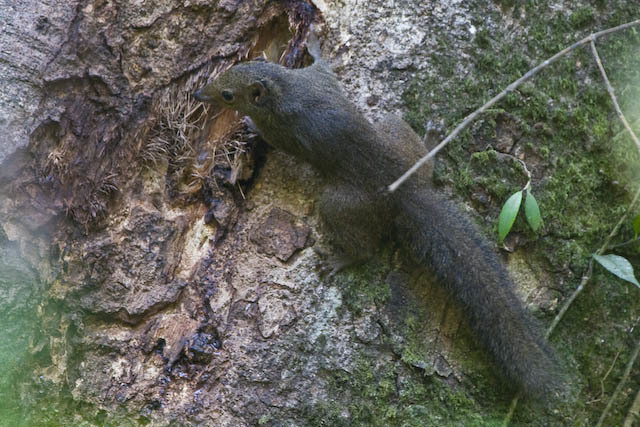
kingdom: Animalia
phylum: Chordata
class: Mammalia
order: Scandentia
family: Tupaiidae
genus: Tupaia
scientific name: Tupaia belangeri
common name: Northern treeshrew
